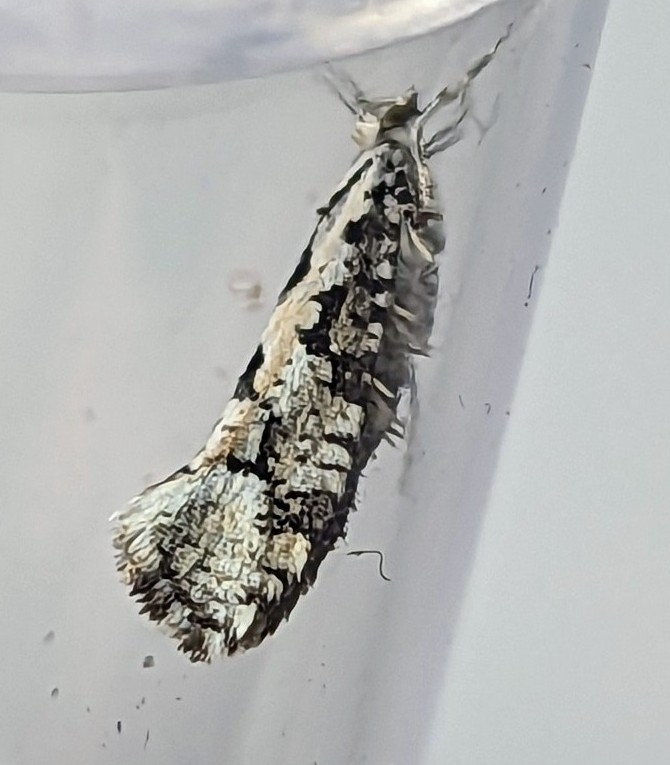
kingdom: Animalia
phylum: Arthropoda
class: Insecta
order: Lepidoptera
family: Plutellidae
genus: Ypsolophus
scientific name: Ypsolophus sequella
